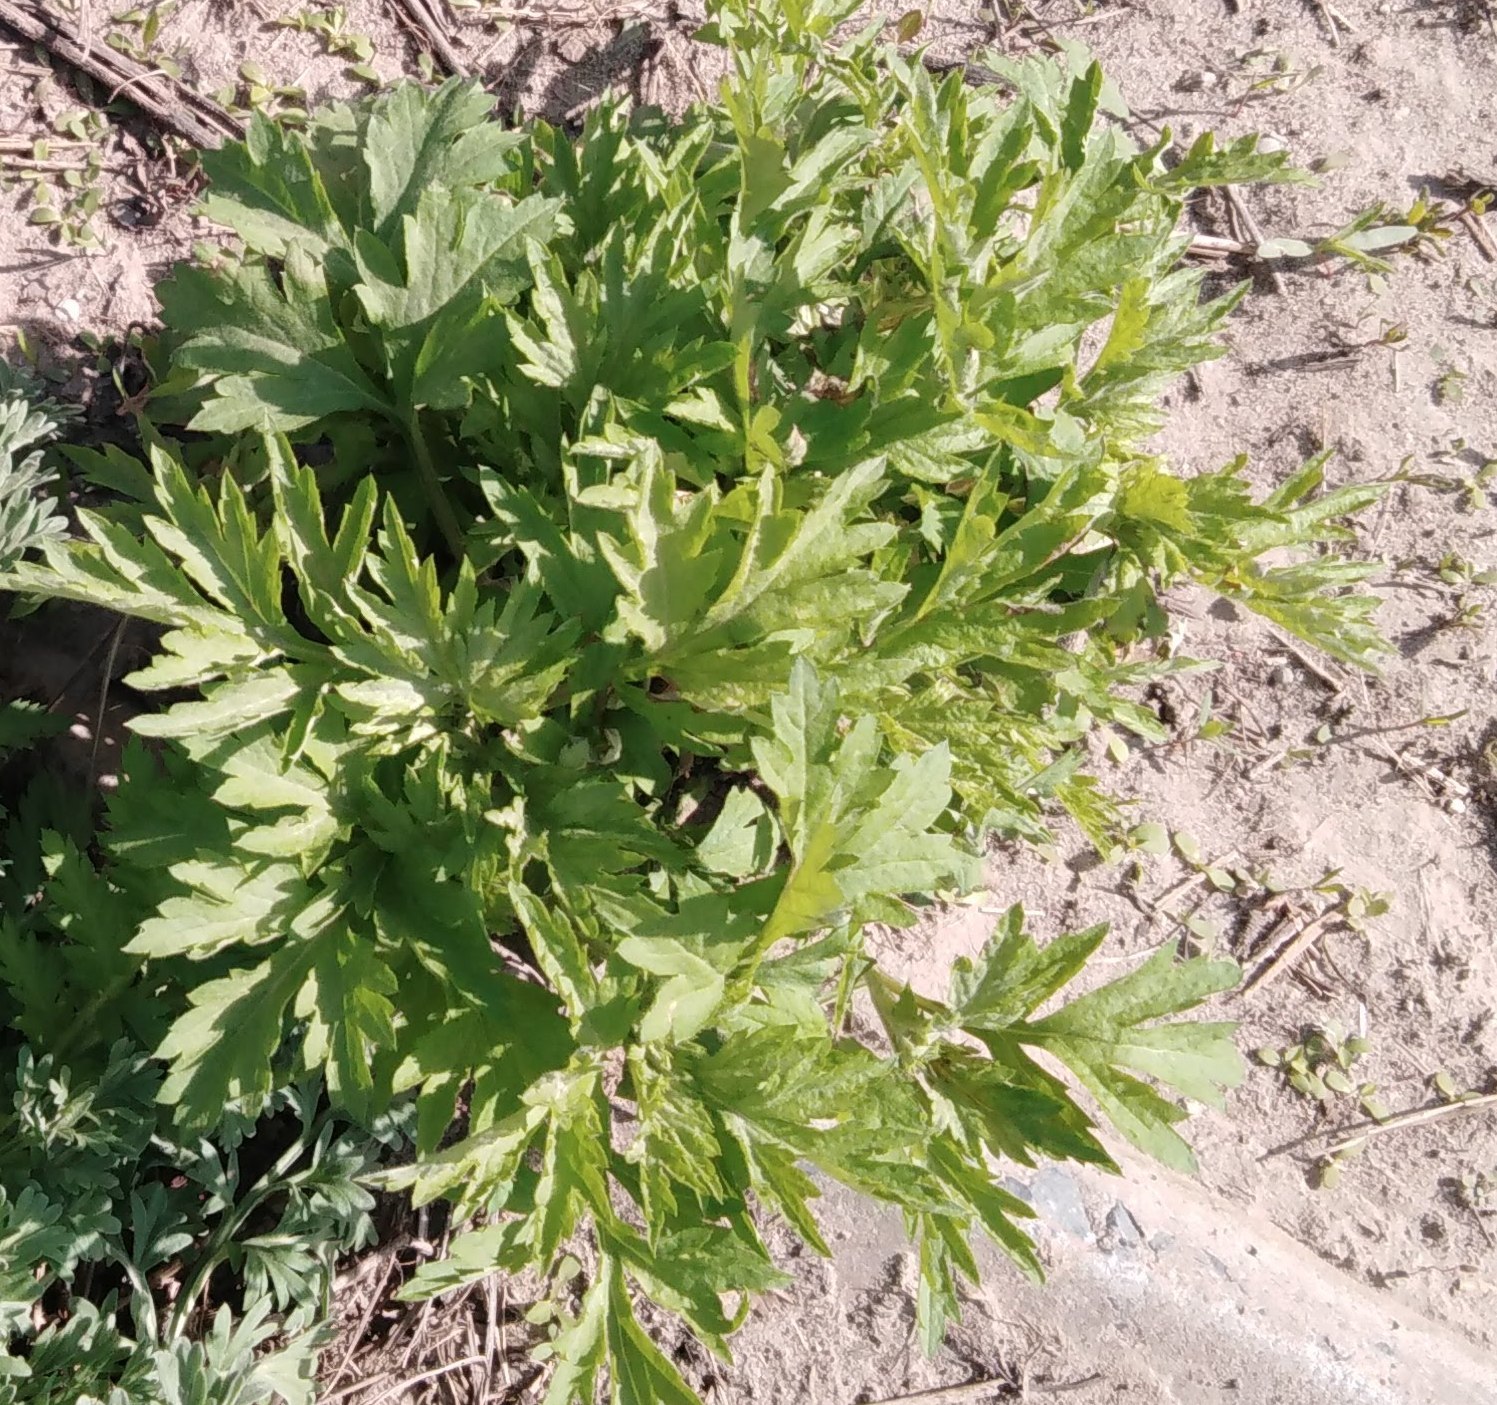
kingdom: Plantae
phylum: Tracheophyta
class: Magnoliopsida
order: Asterales
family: Asteraceae
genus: Artemisia
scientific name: Artemisia vulgaris
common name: Mugwort
